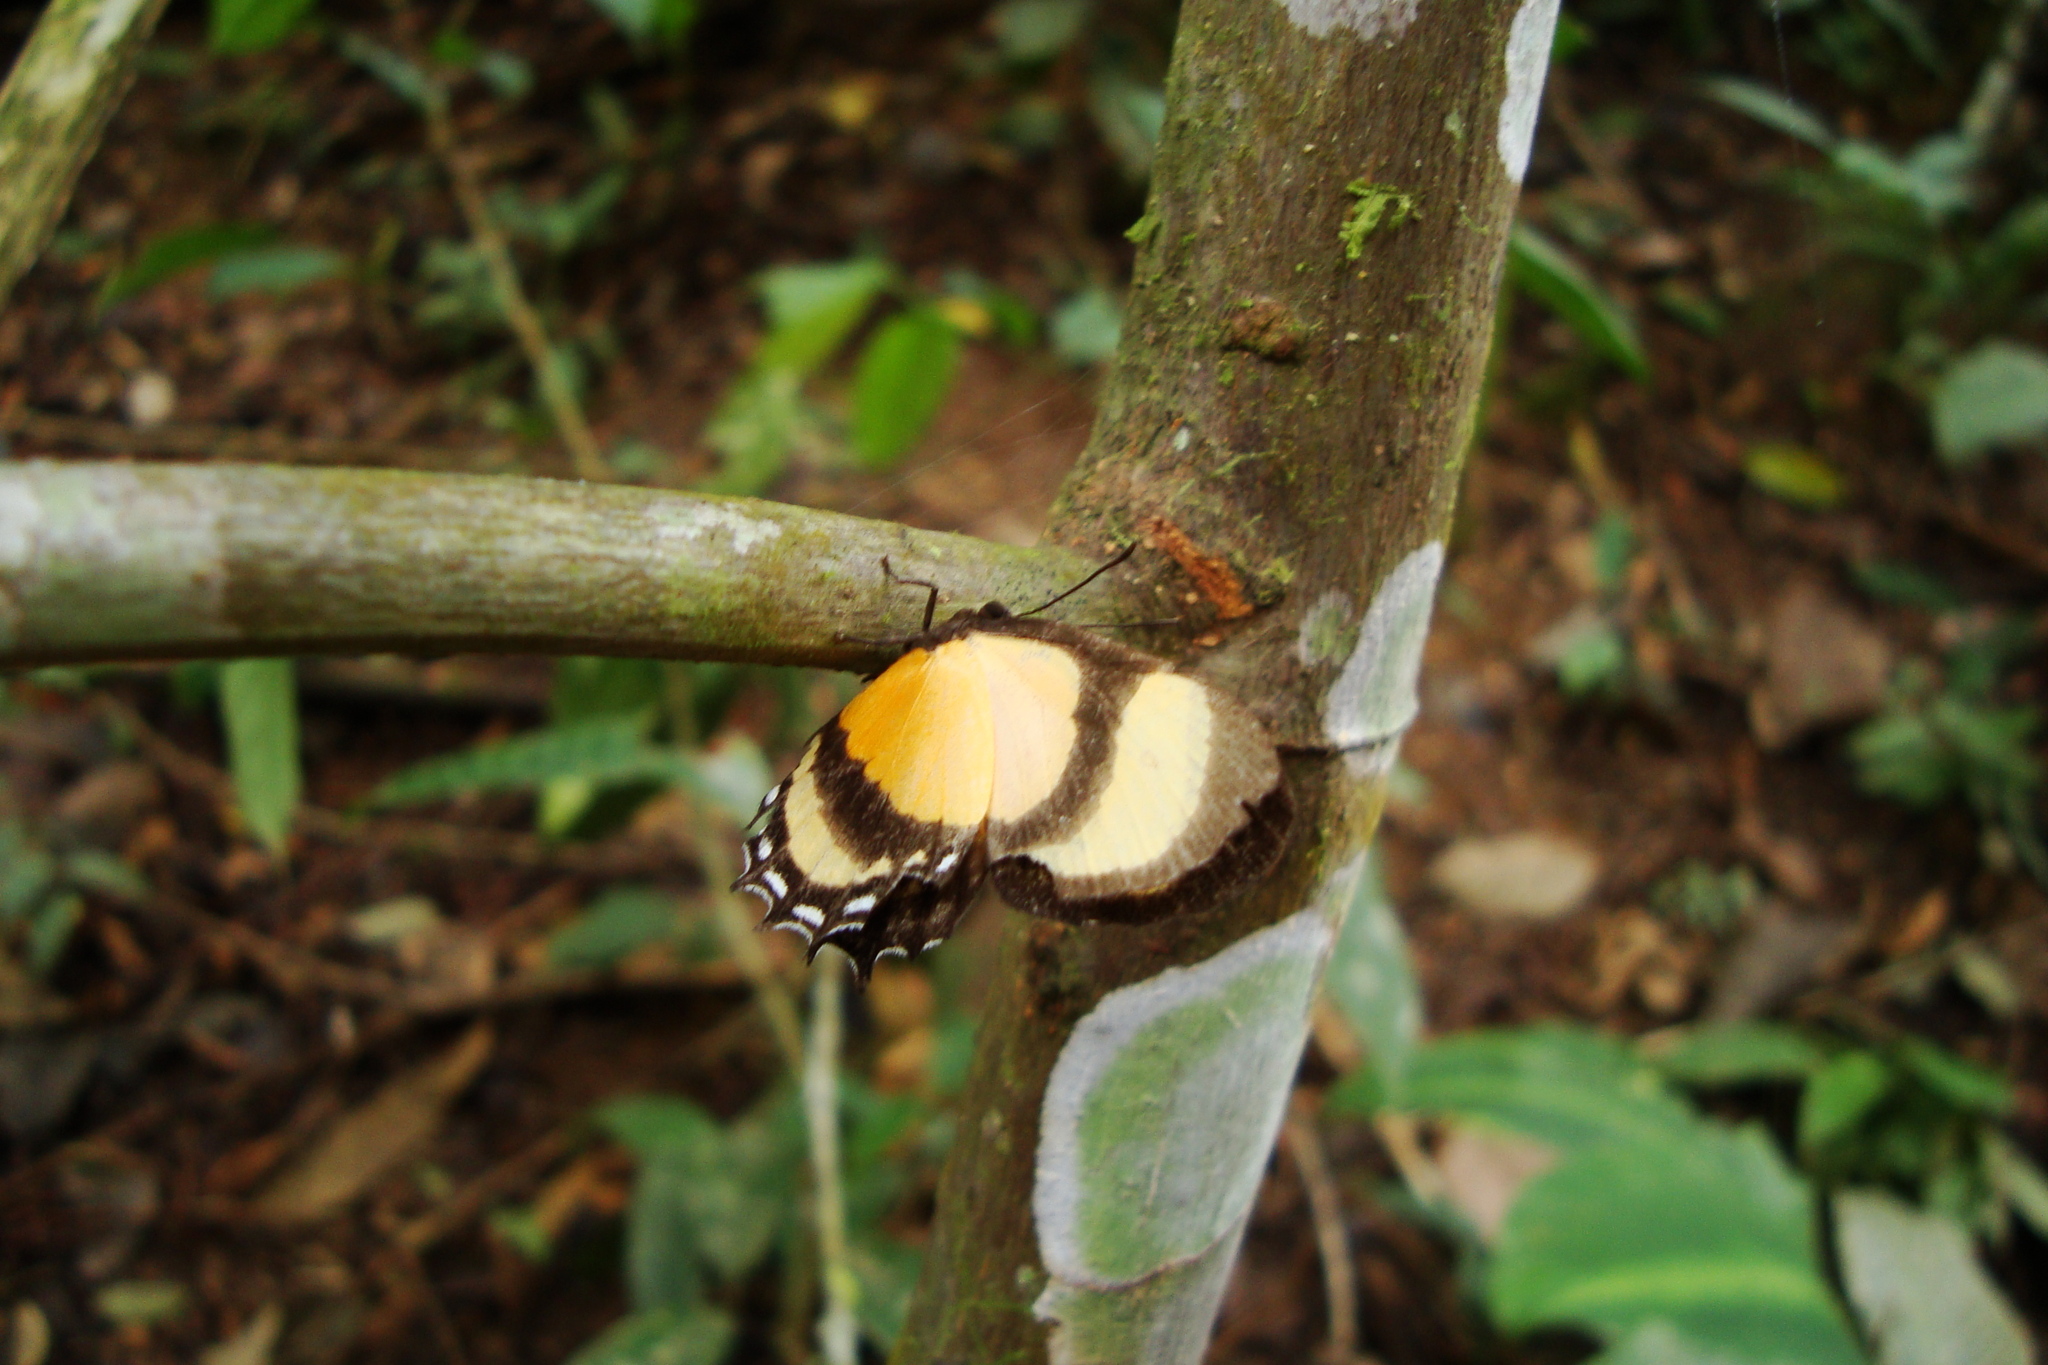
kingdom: Animalia
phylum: Arthropoda
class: Insecta
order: Lepidoptera
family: Riodinidae
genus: Methone
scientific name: Methone cecilia
